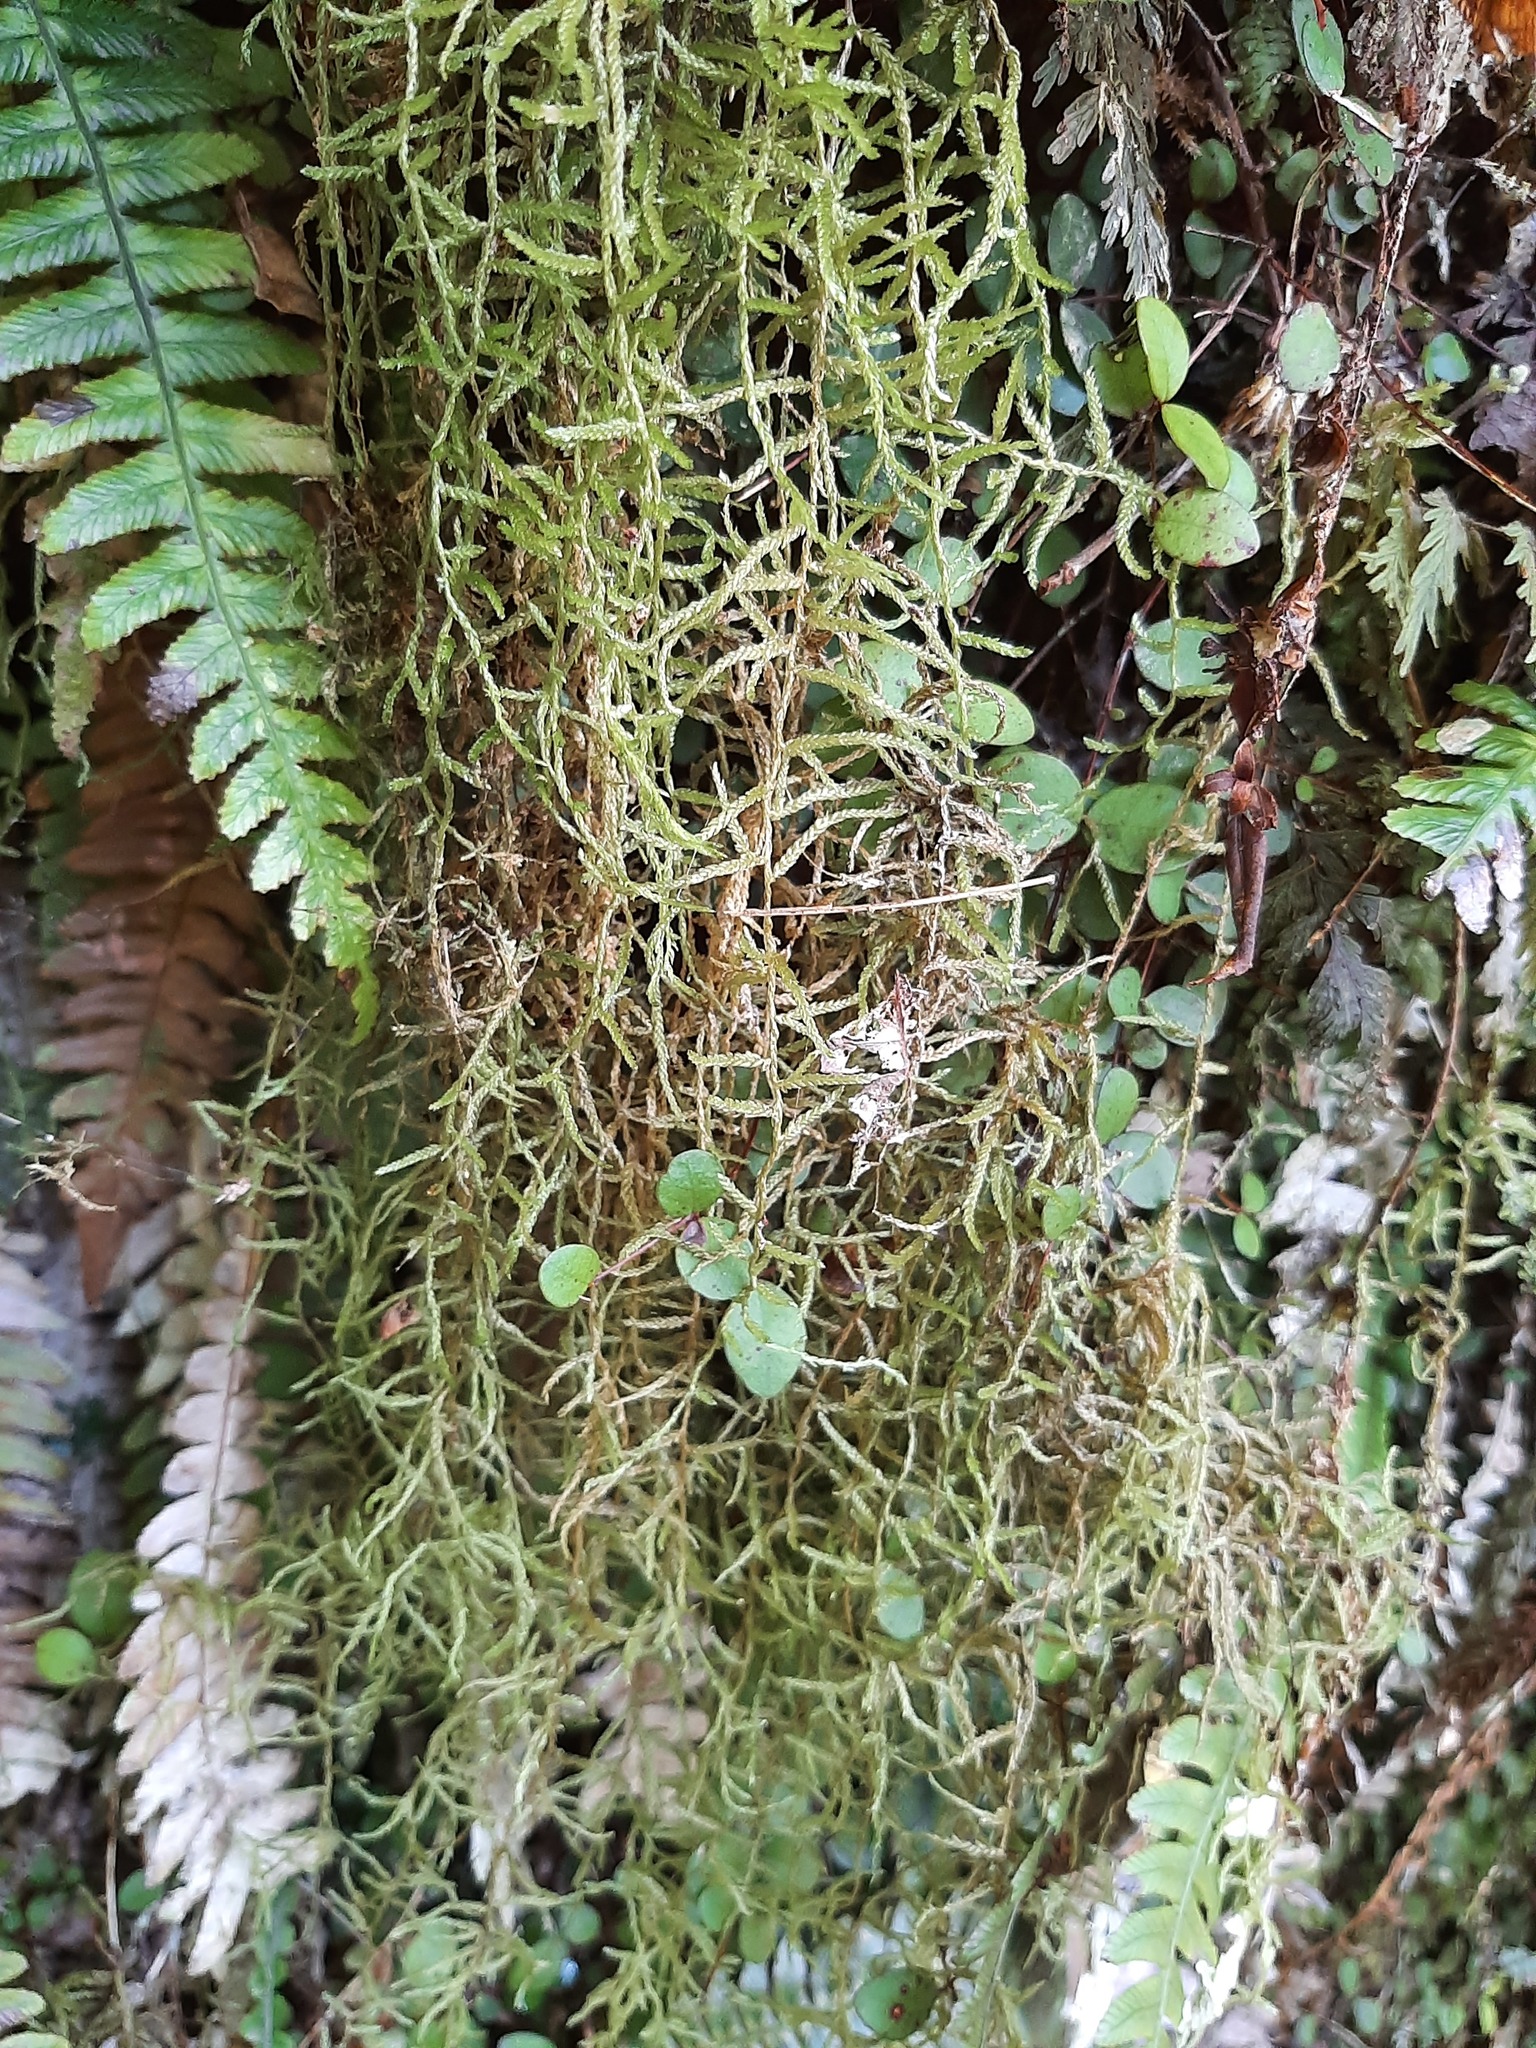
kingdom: Plantae
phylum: Bryophyta
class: Bryopsida
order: Hypnales
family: Lembophyllaceae
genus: Weymouthia
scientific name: Weymouthia mollis
